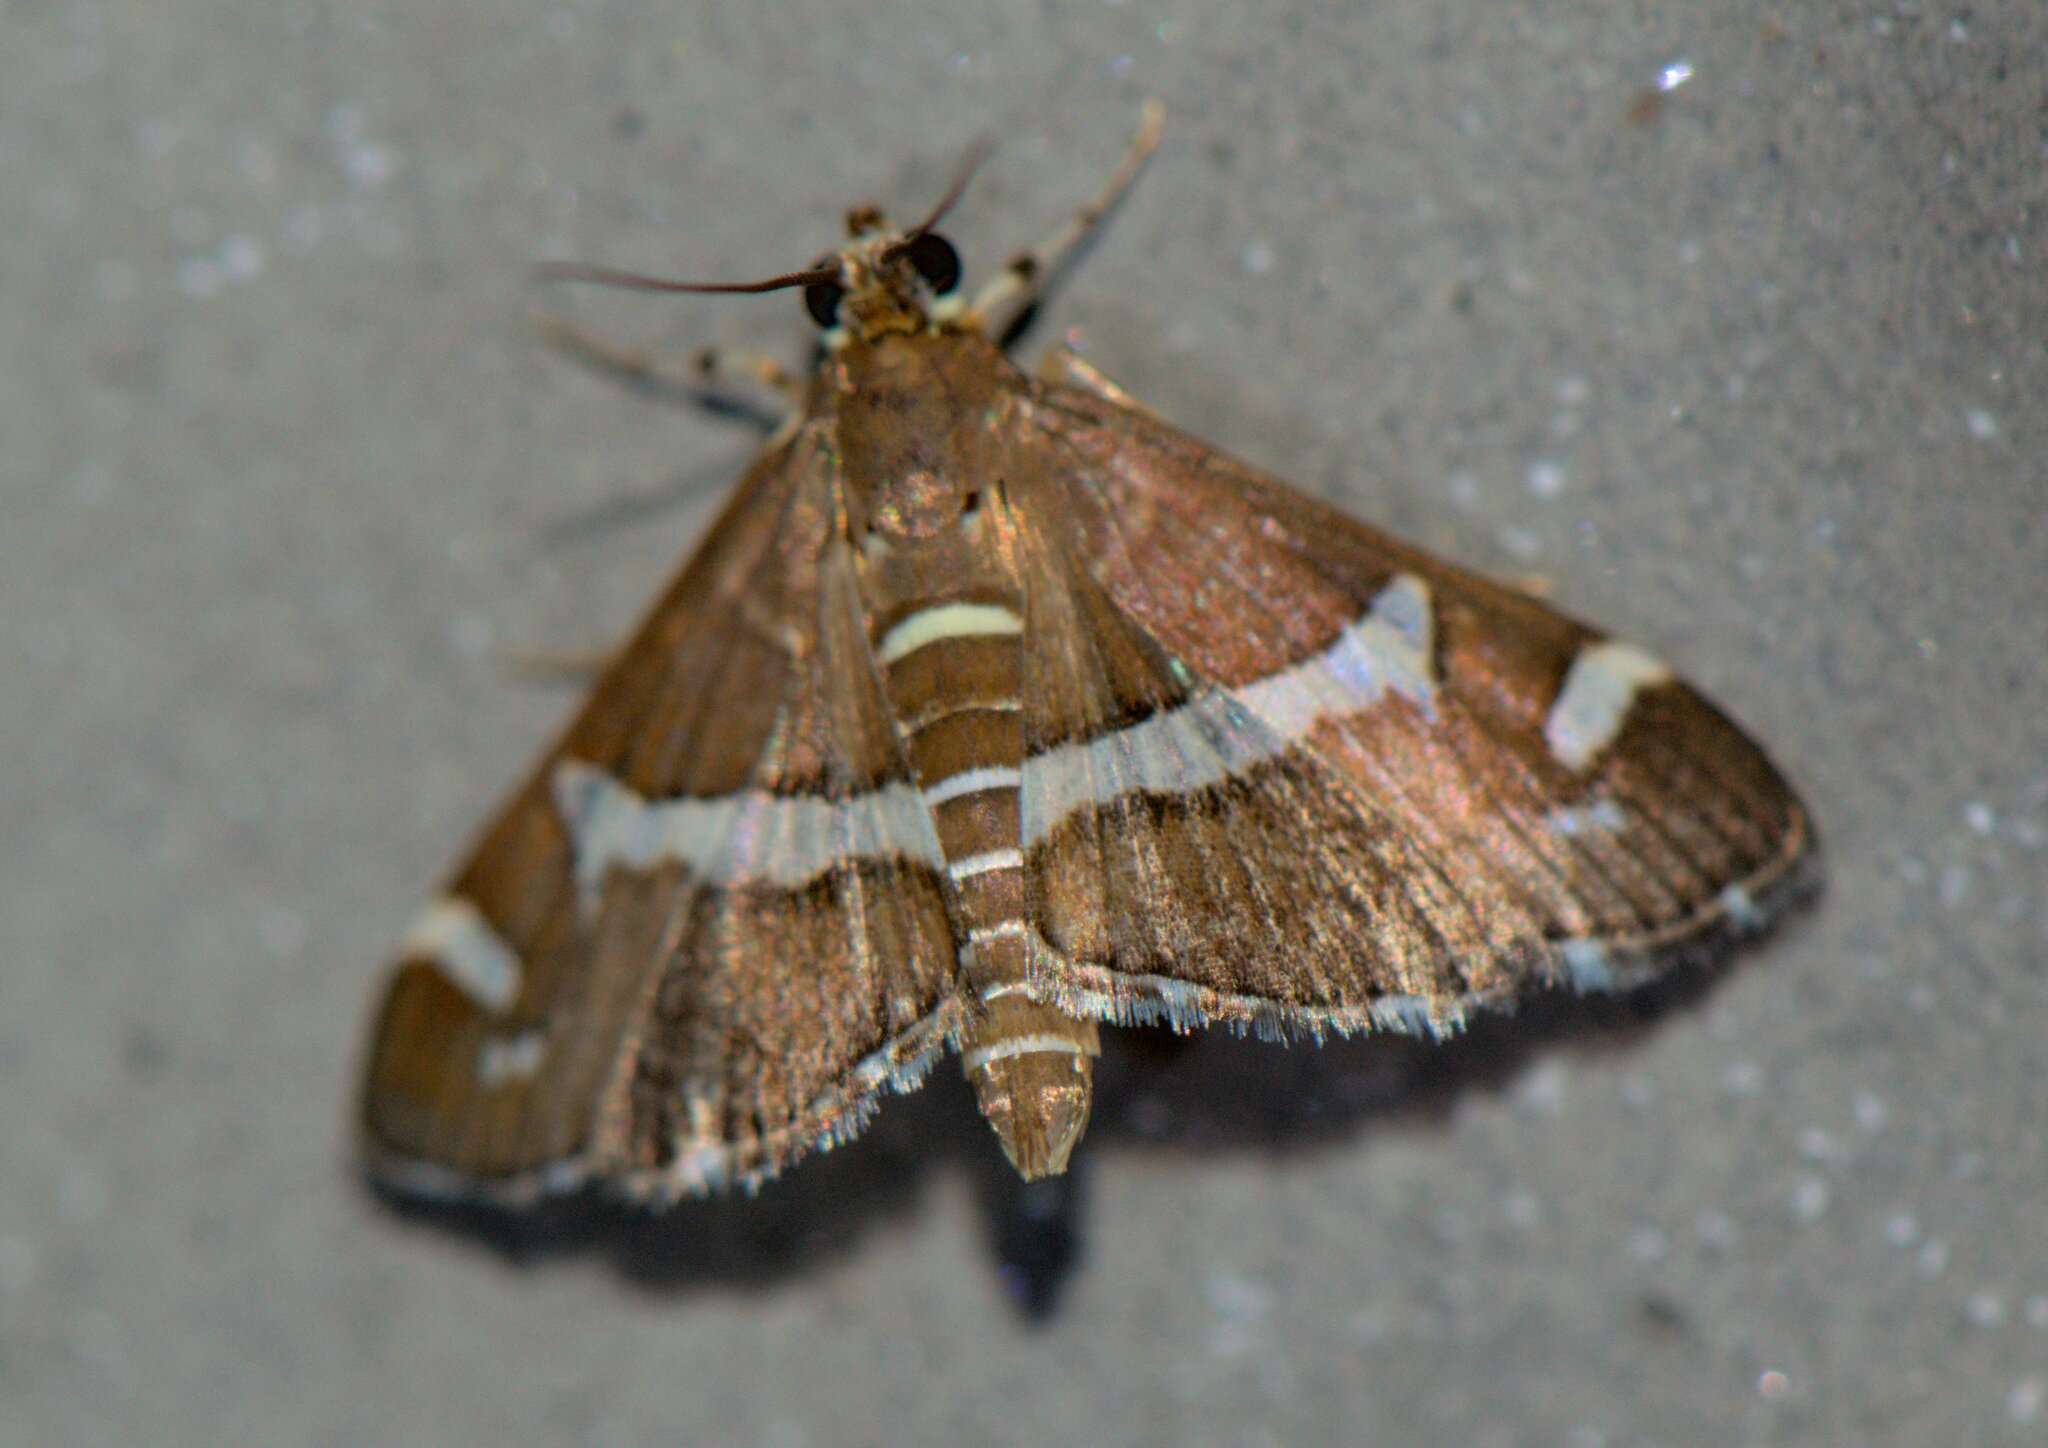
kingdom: Animalia
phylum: Arthropoda
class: Insecta
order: Lepidoptera
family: Crambidae
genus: Spoladea
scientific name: Spoladea recurvalis
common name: Beet webworm moth
